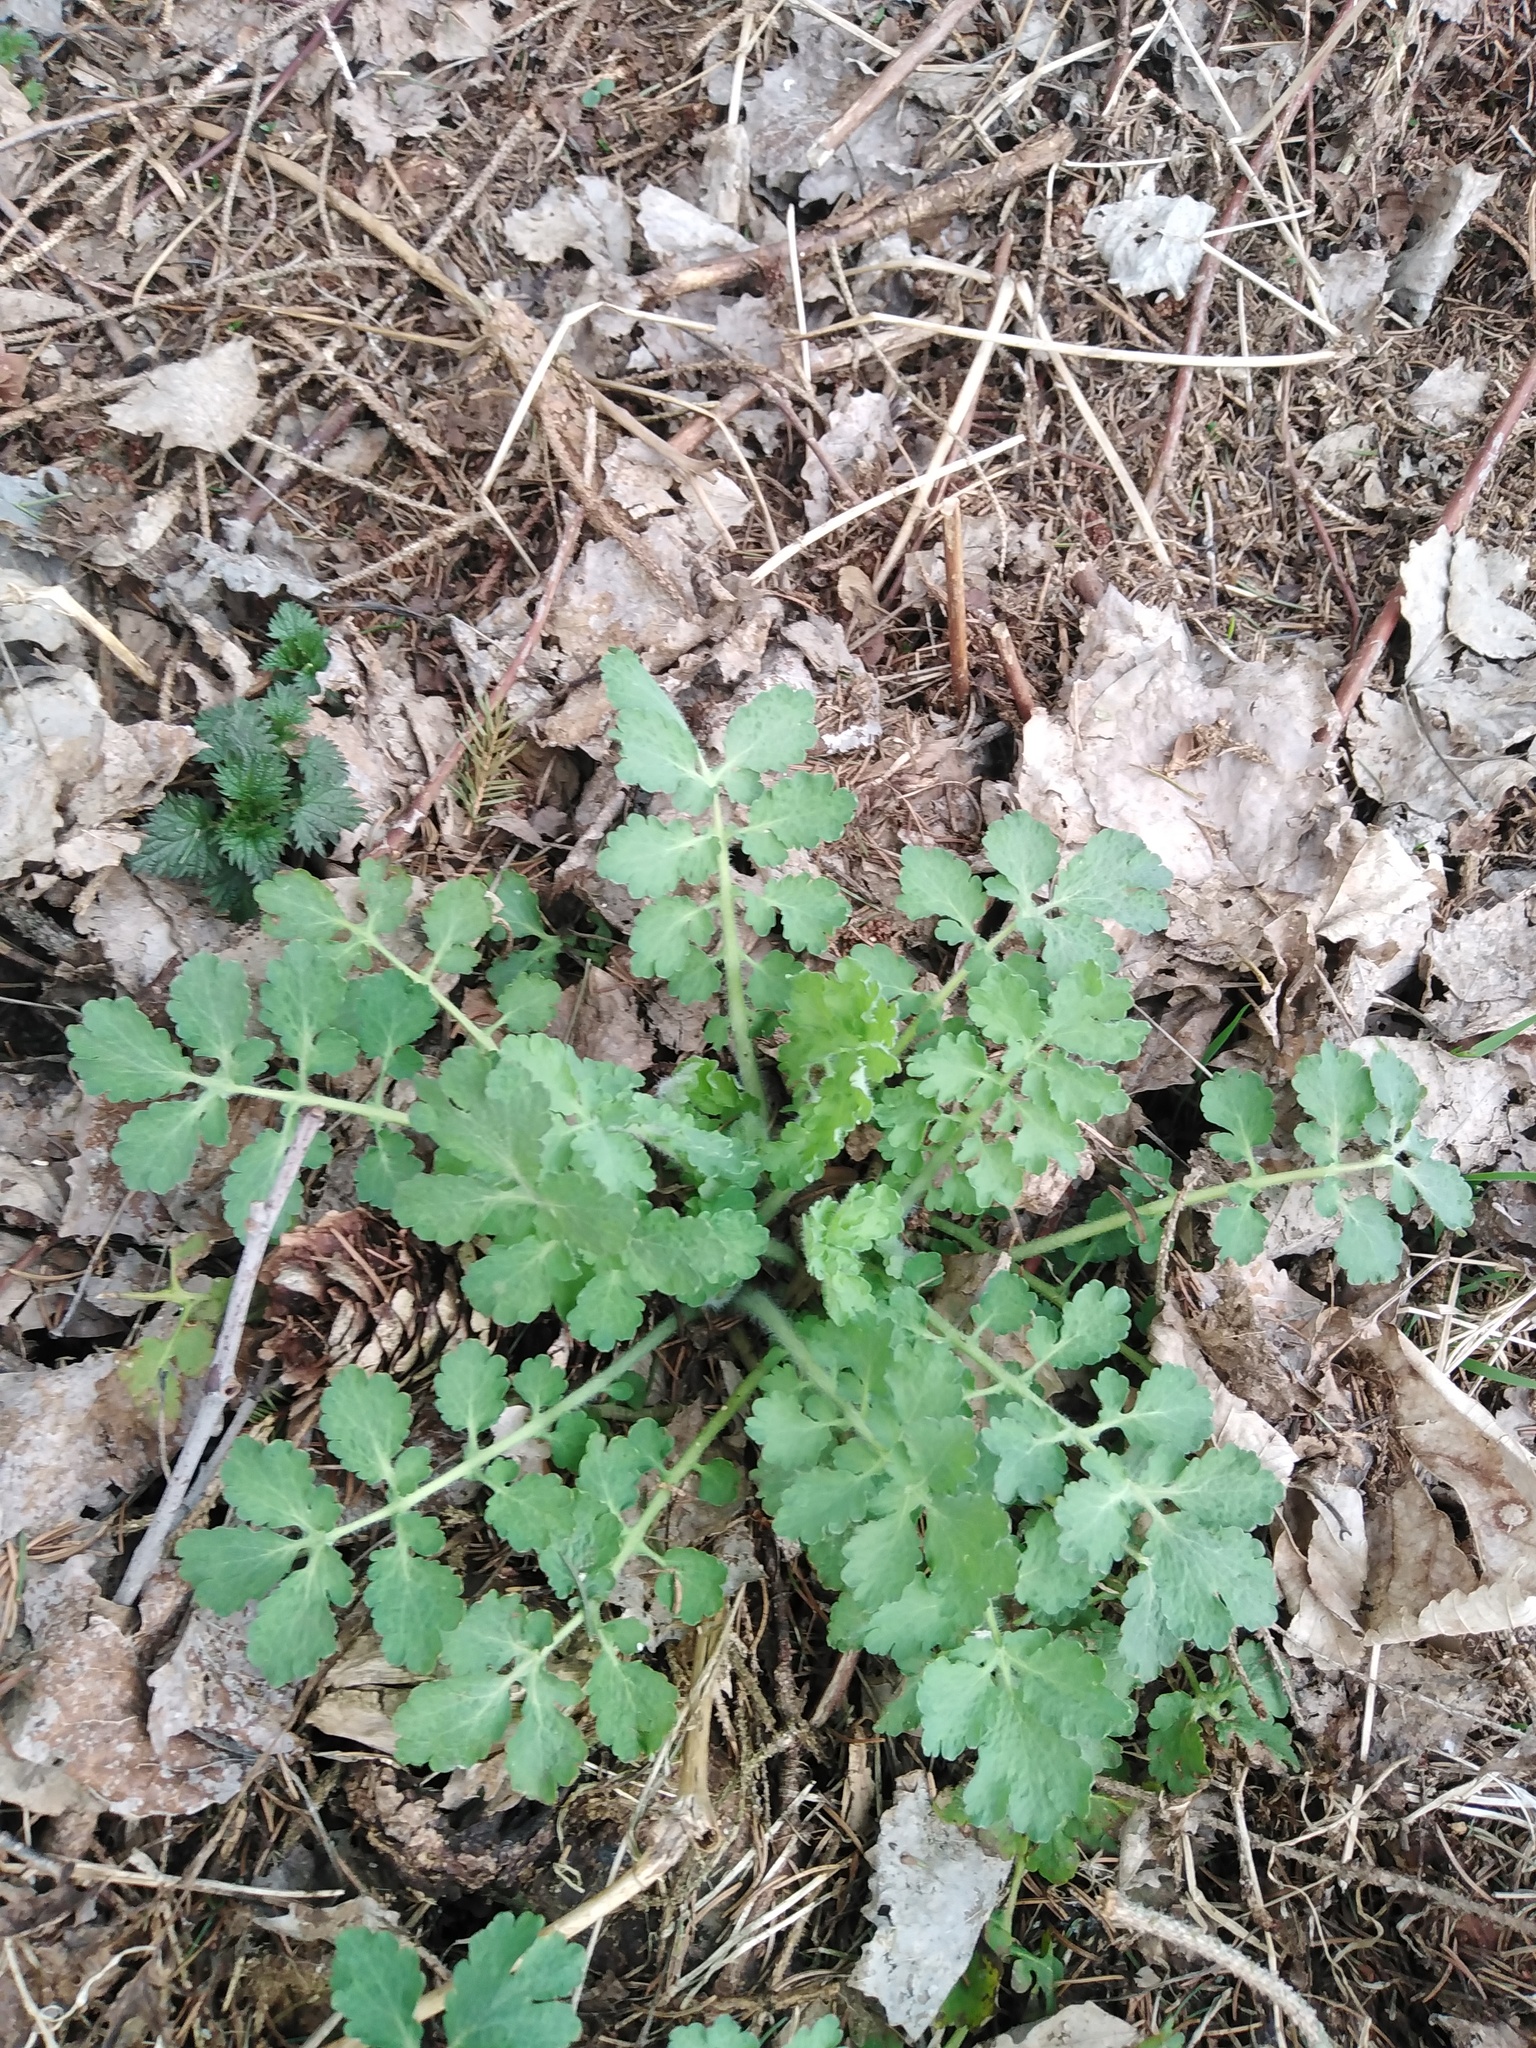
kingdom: Plantae
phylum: Tracheophyta
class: Magnoliopsida
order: Ranunculales
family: Papaveraceae
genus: Chelidonium
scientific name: Chelidonium majus
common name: Greater celandine
